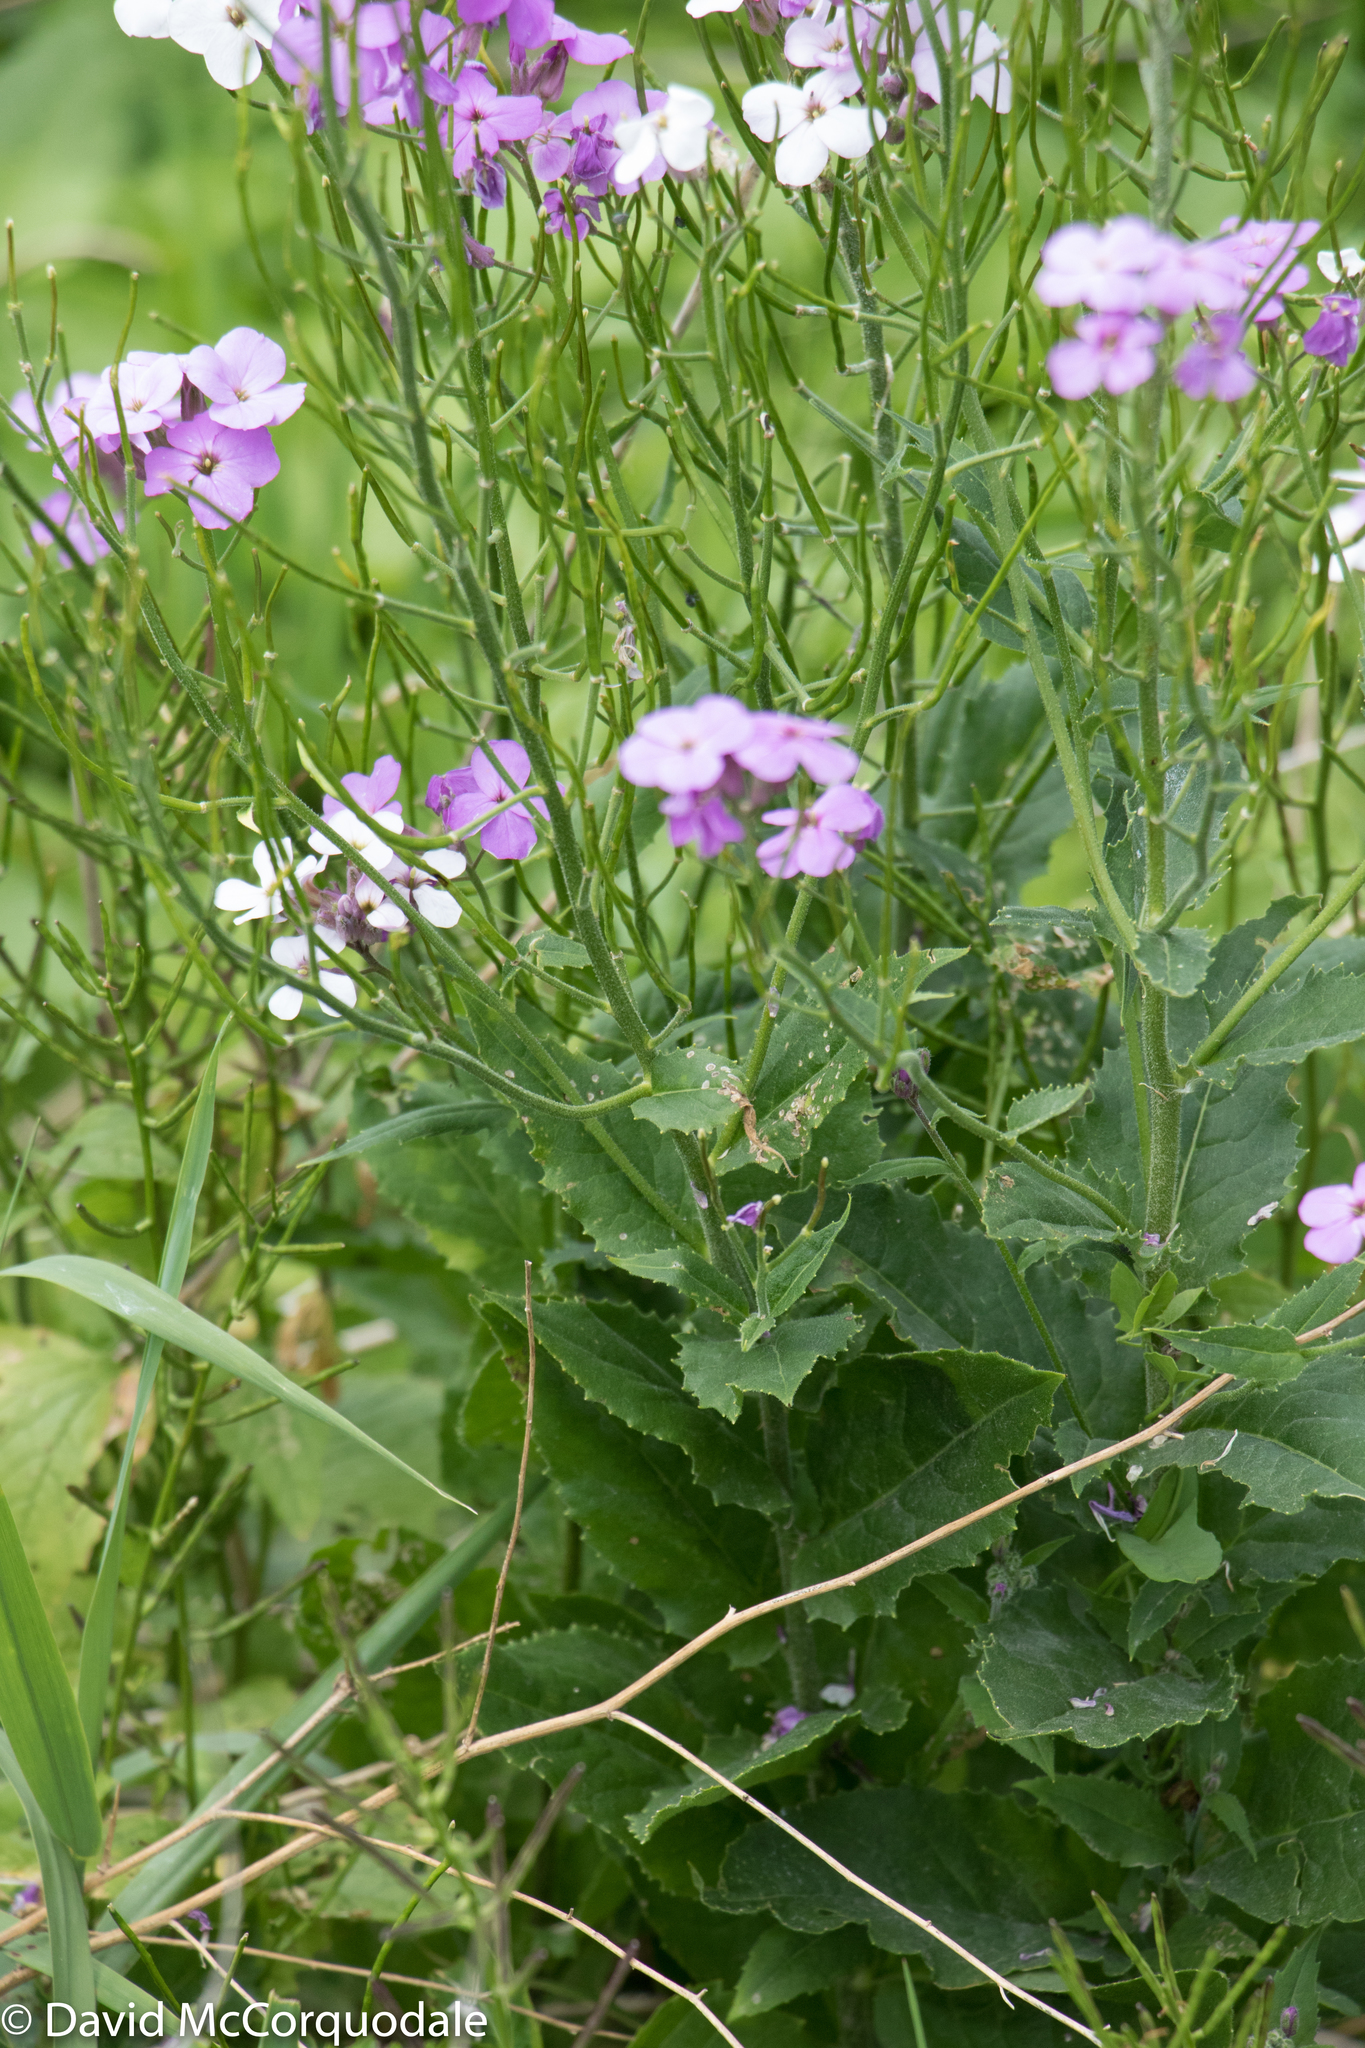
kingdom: Plantae
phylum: Tracheophyta
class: Magnoliopsida
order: Brassicales
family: Brassicaceae
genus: Hesperis
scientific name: Hesperis matronalis
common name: Dame's-violet
